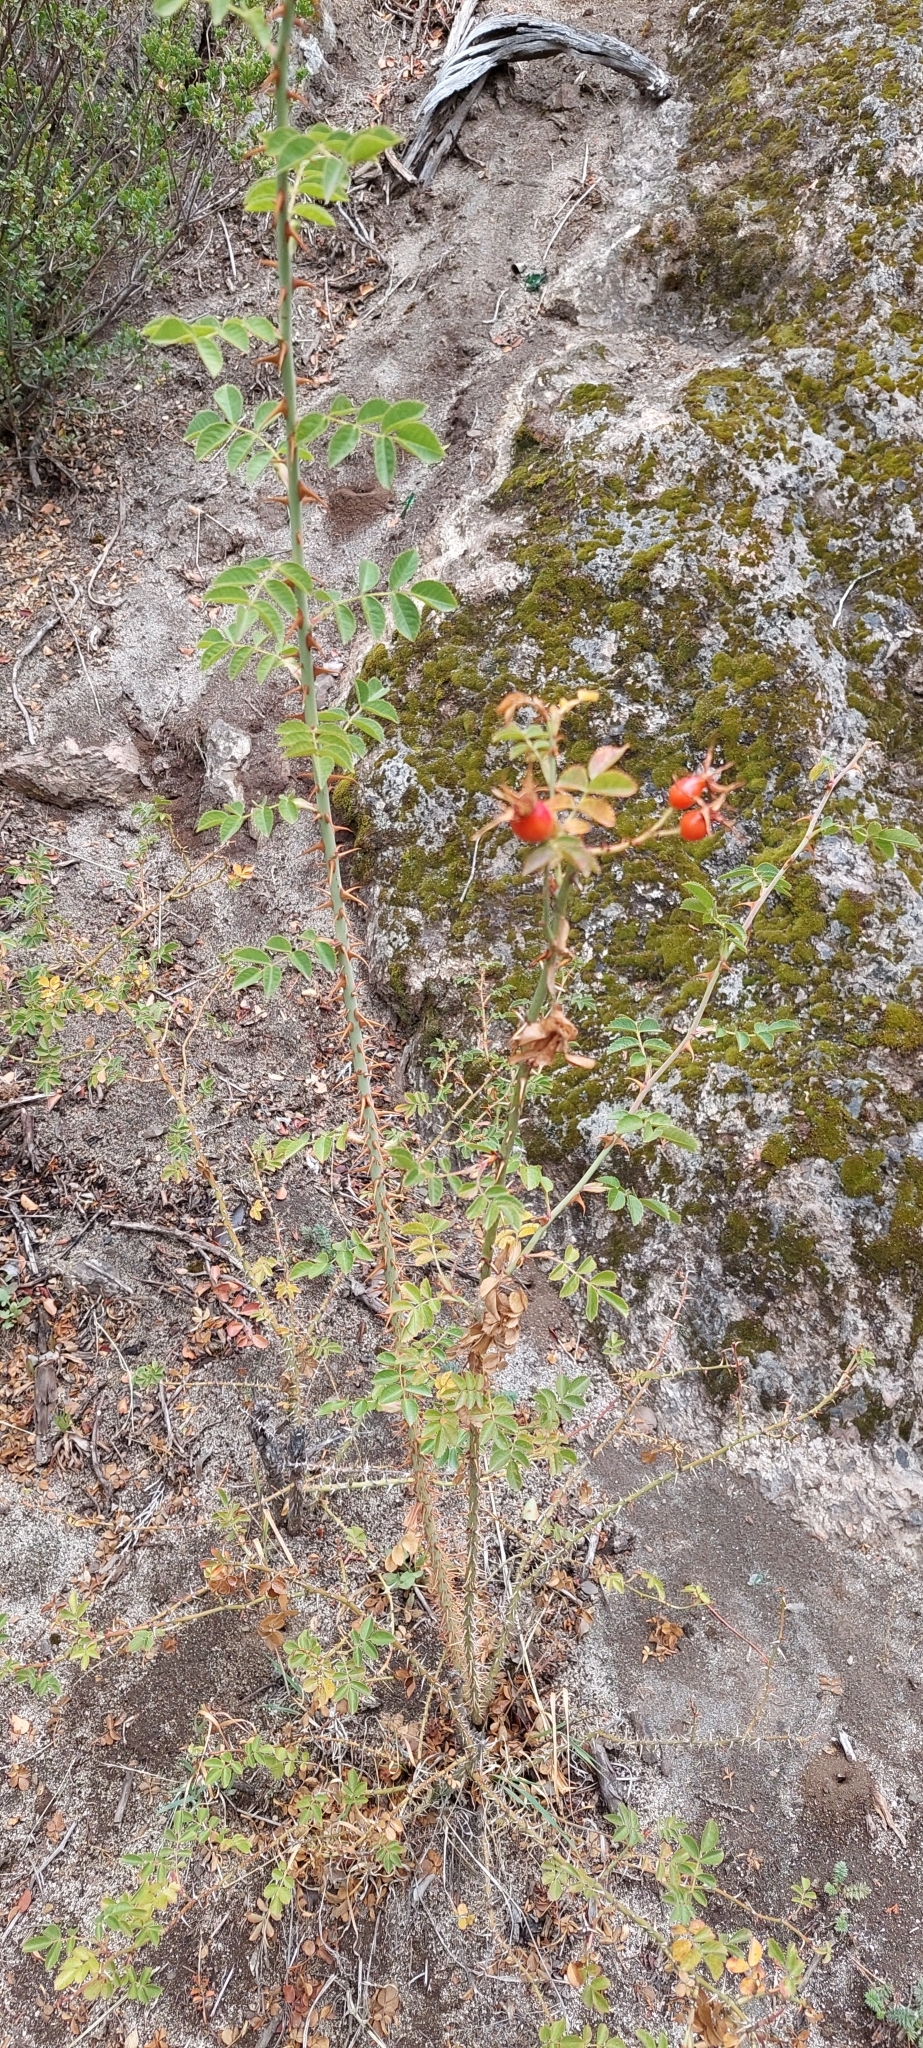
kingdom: Plantae
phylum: Tracheophyta
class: Magnoliopsida
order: Rosales
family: Rosaceae
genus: Rosa
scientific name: Rosa rubiginosa
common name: Sweet-briar
